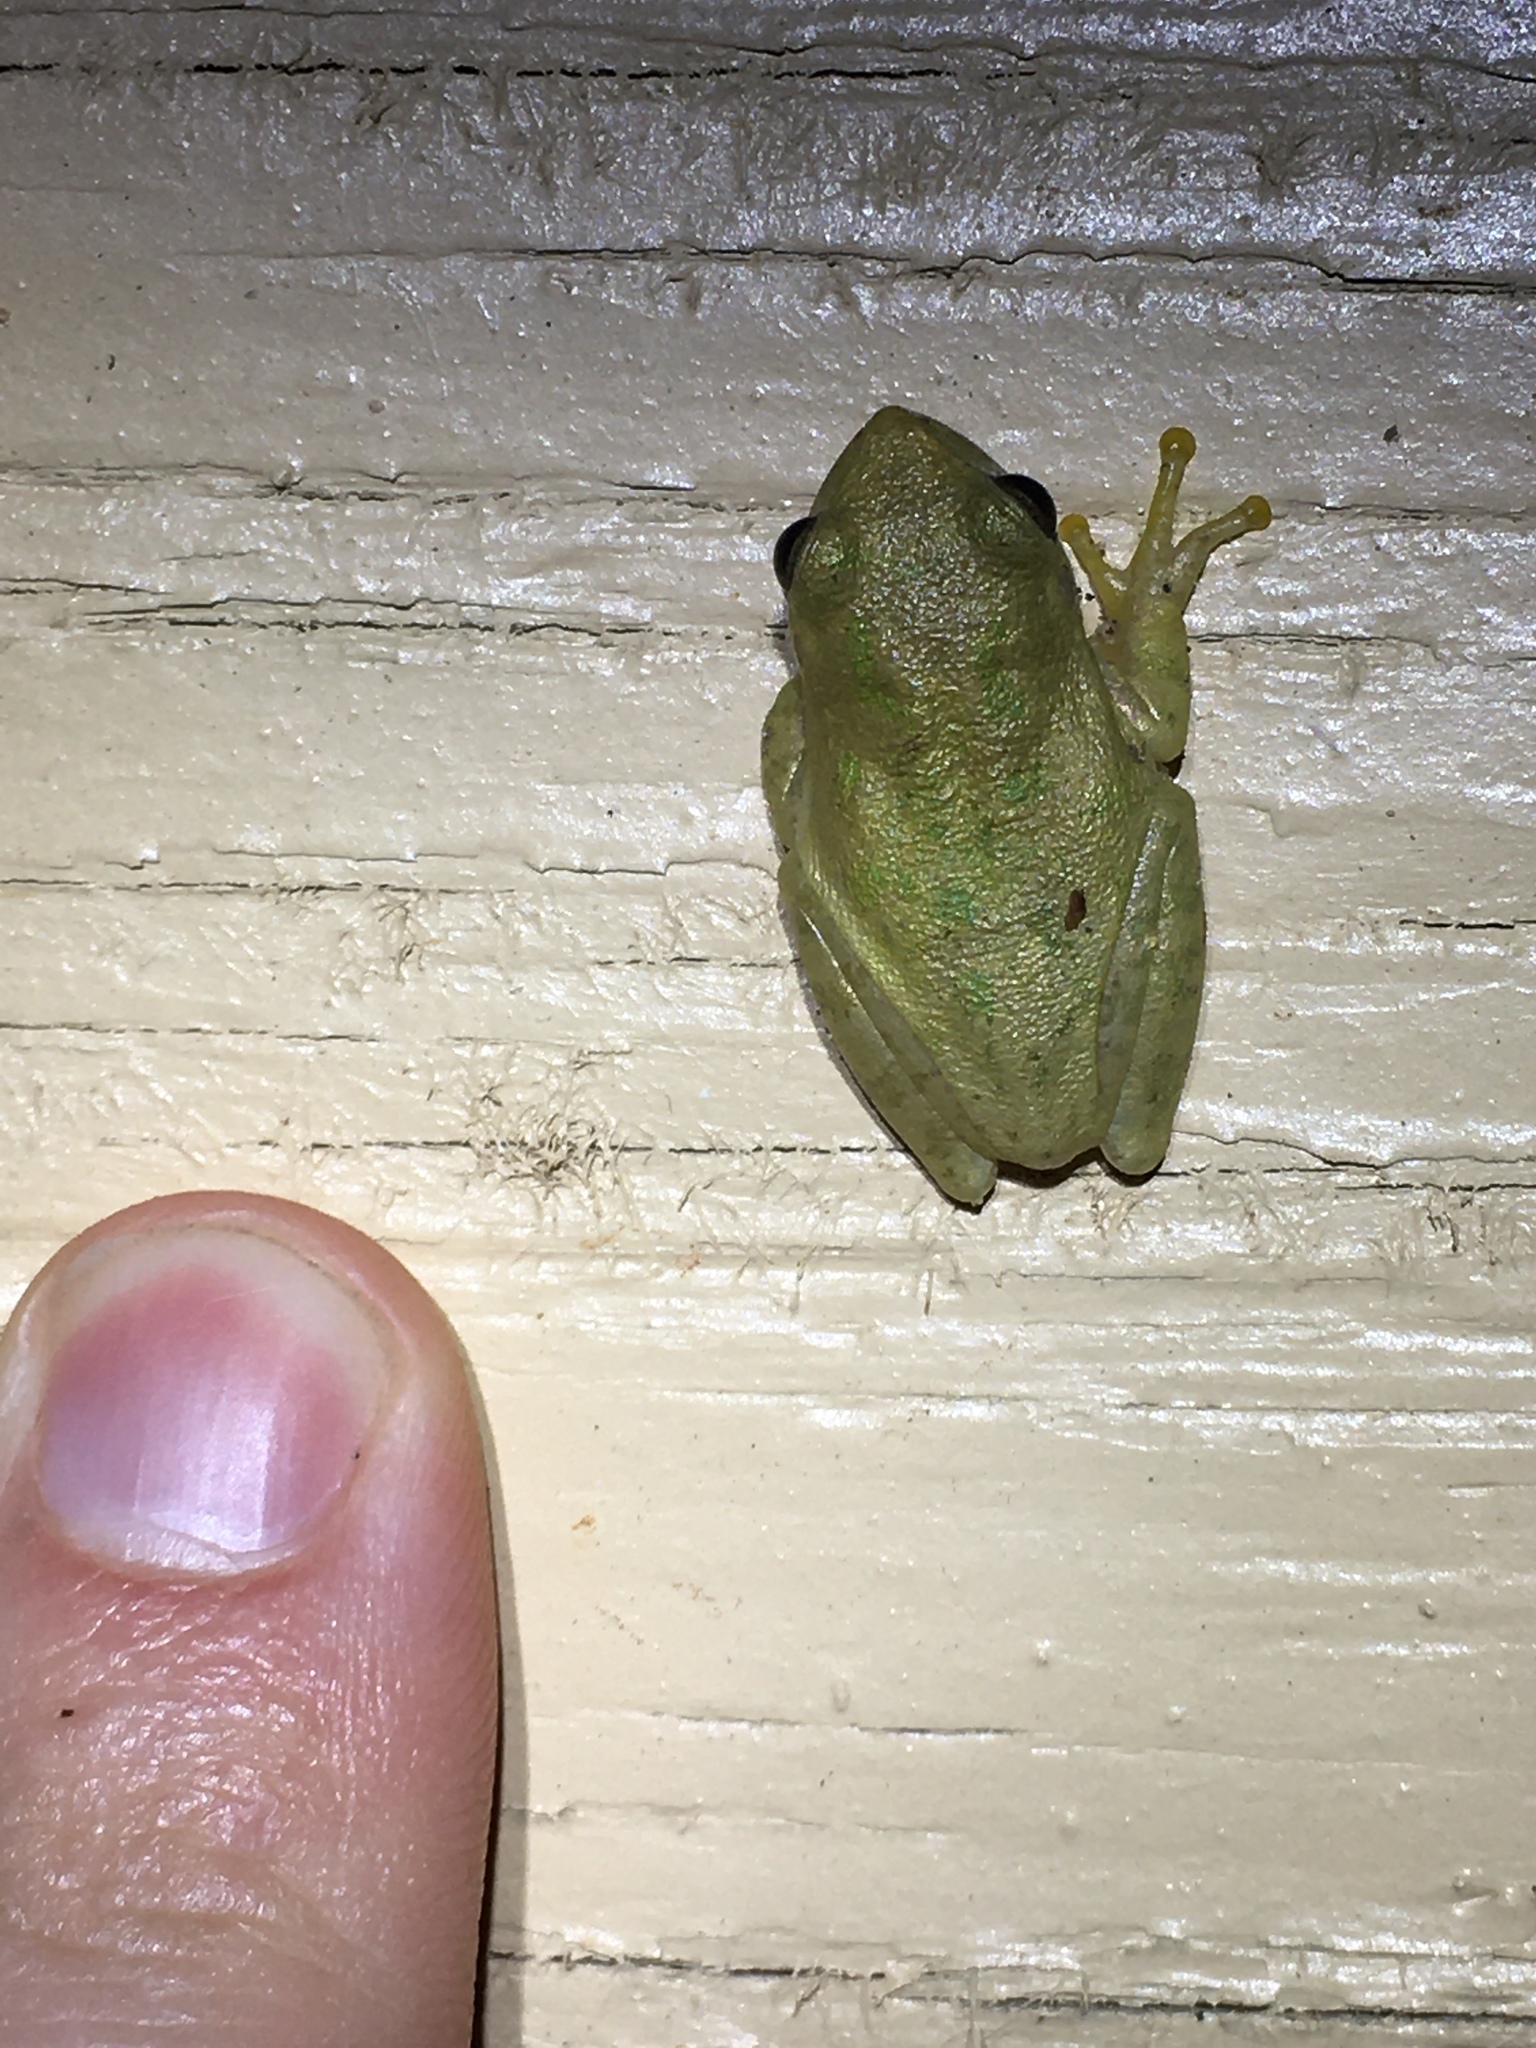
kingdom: Animalia
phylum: Chordata
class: Amphibia
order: Anura
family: Hylidae
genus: Dryophytes
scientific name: Dryophytes squirellus
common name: Squirrel treefrog
